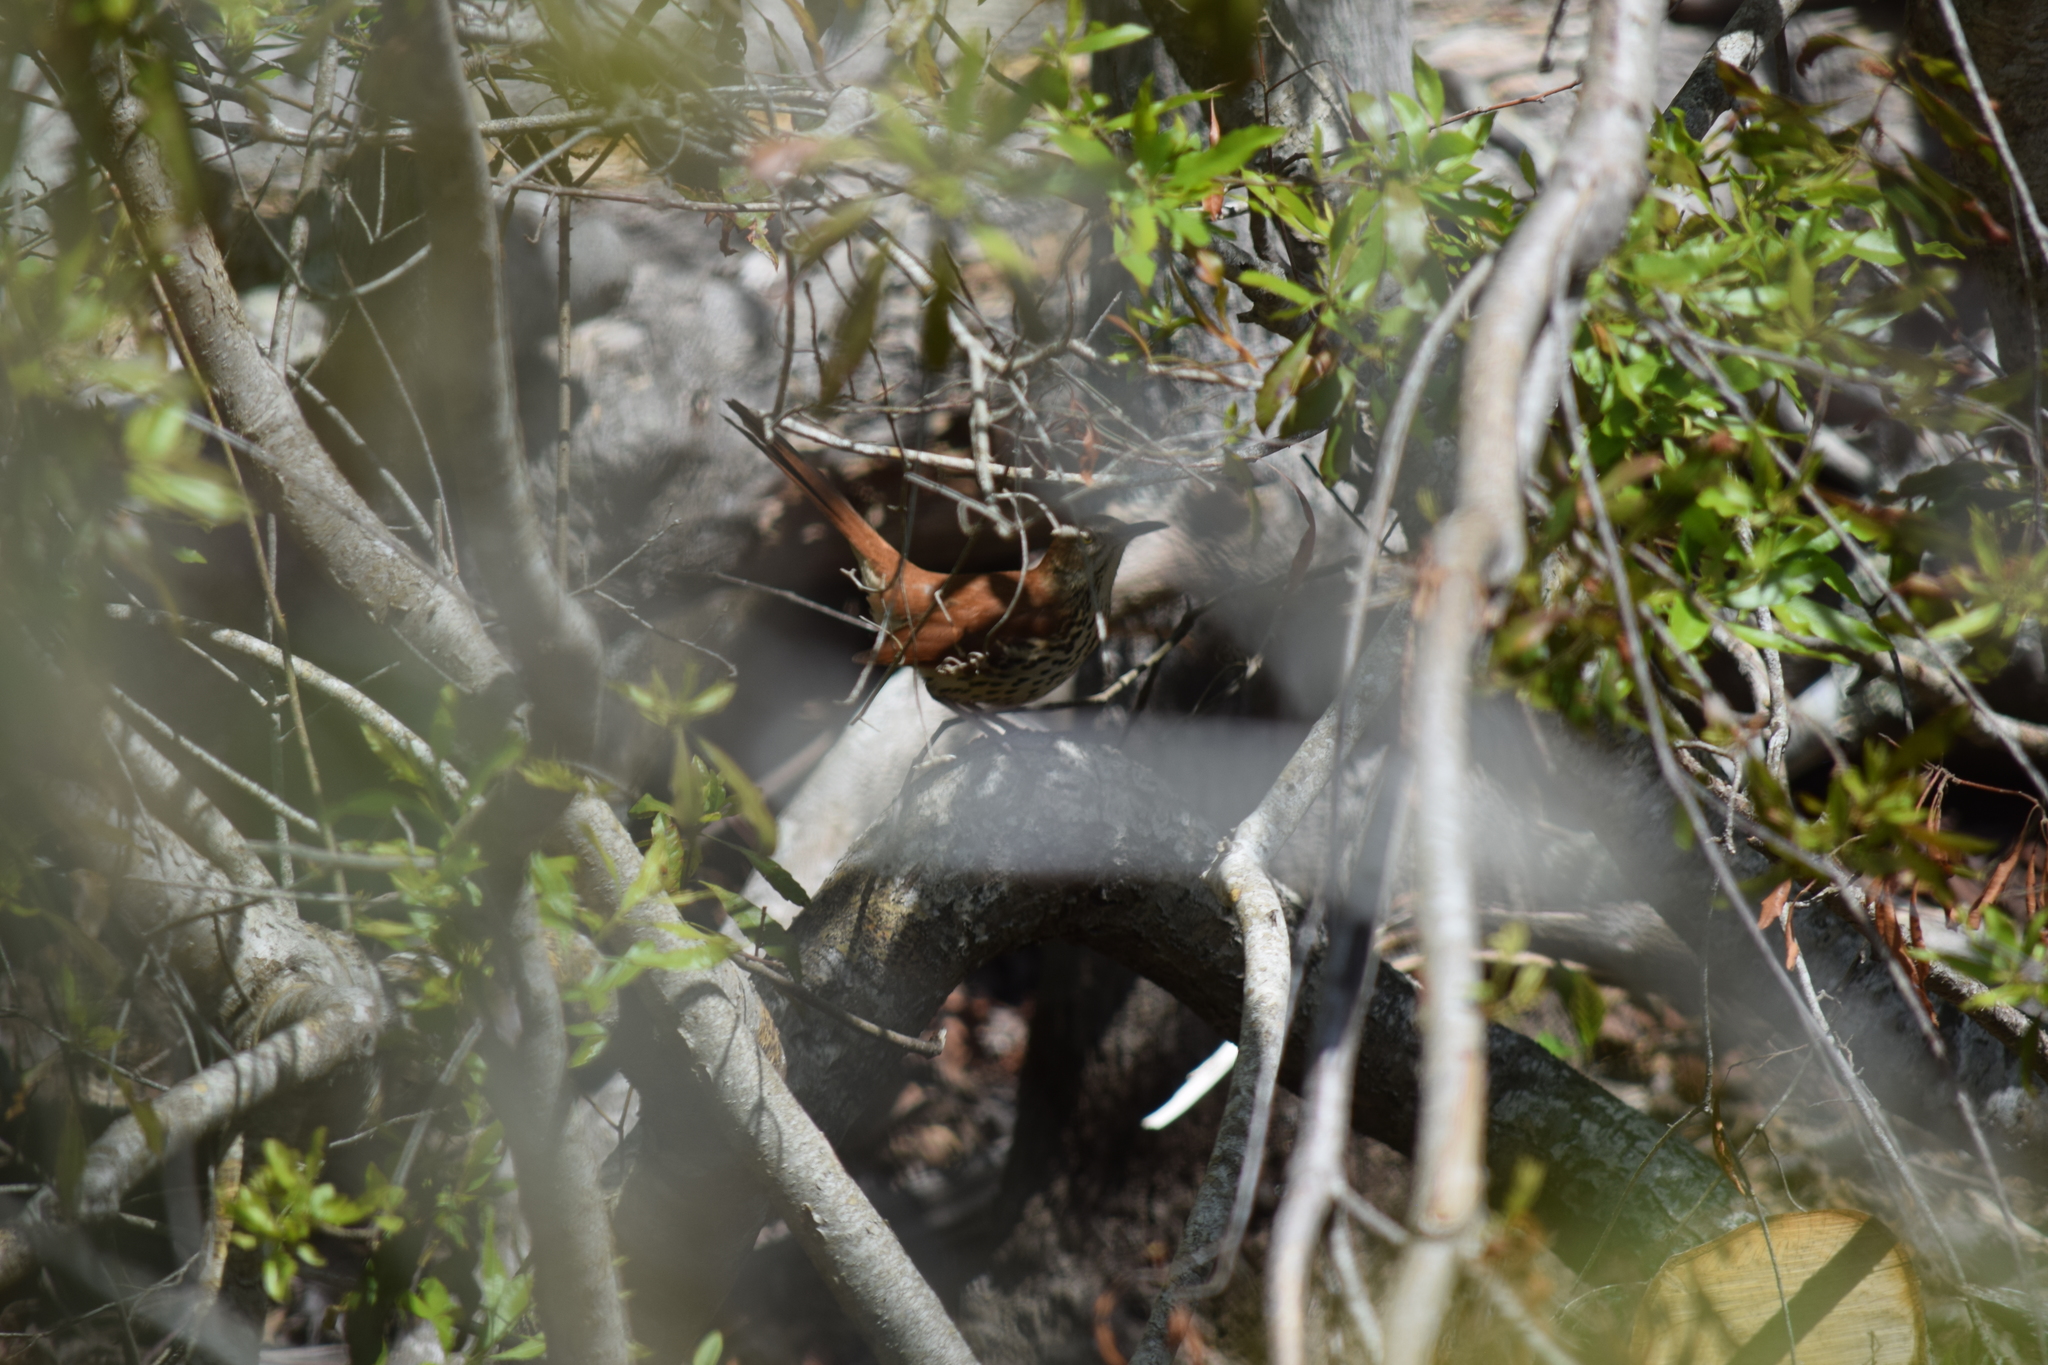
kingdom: Animalia
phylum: Chordata
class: Aves
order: Passeriformes
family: Mimidae
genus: Toxostoma
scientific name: Toxostoma rufum
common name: Brown thrasher
